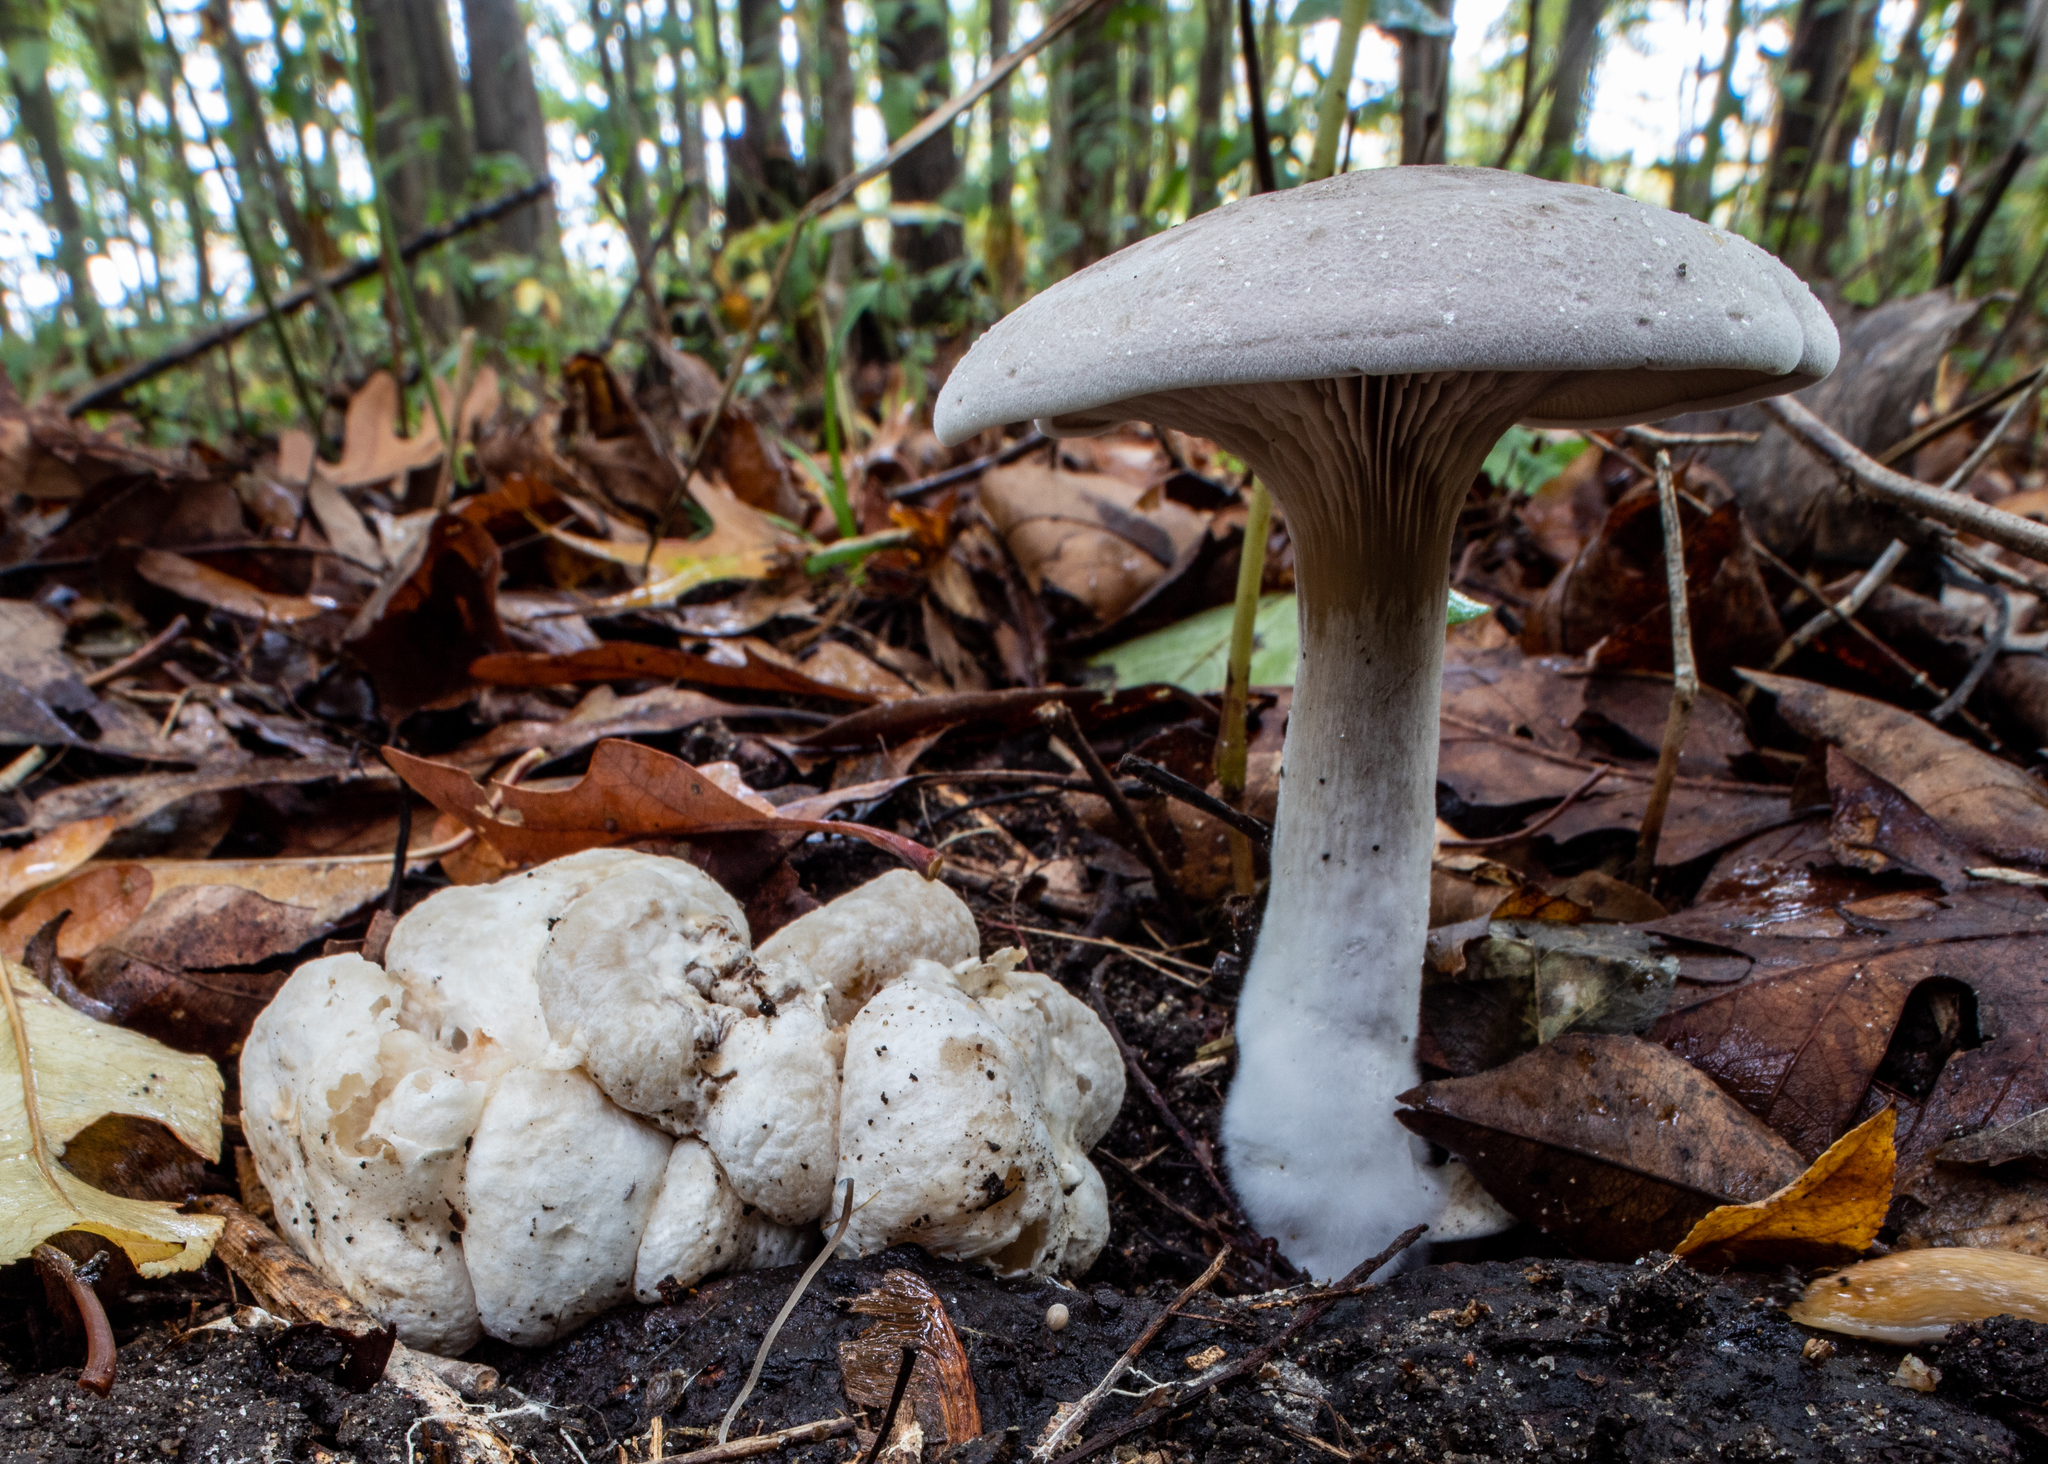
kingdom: Fungi
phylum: Basidiomycota
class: Agaricomycetes
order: Agaricales
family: Entolomataceae
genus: Entoloma
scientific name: Entoloma abortivum
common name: Aborted entoloma
